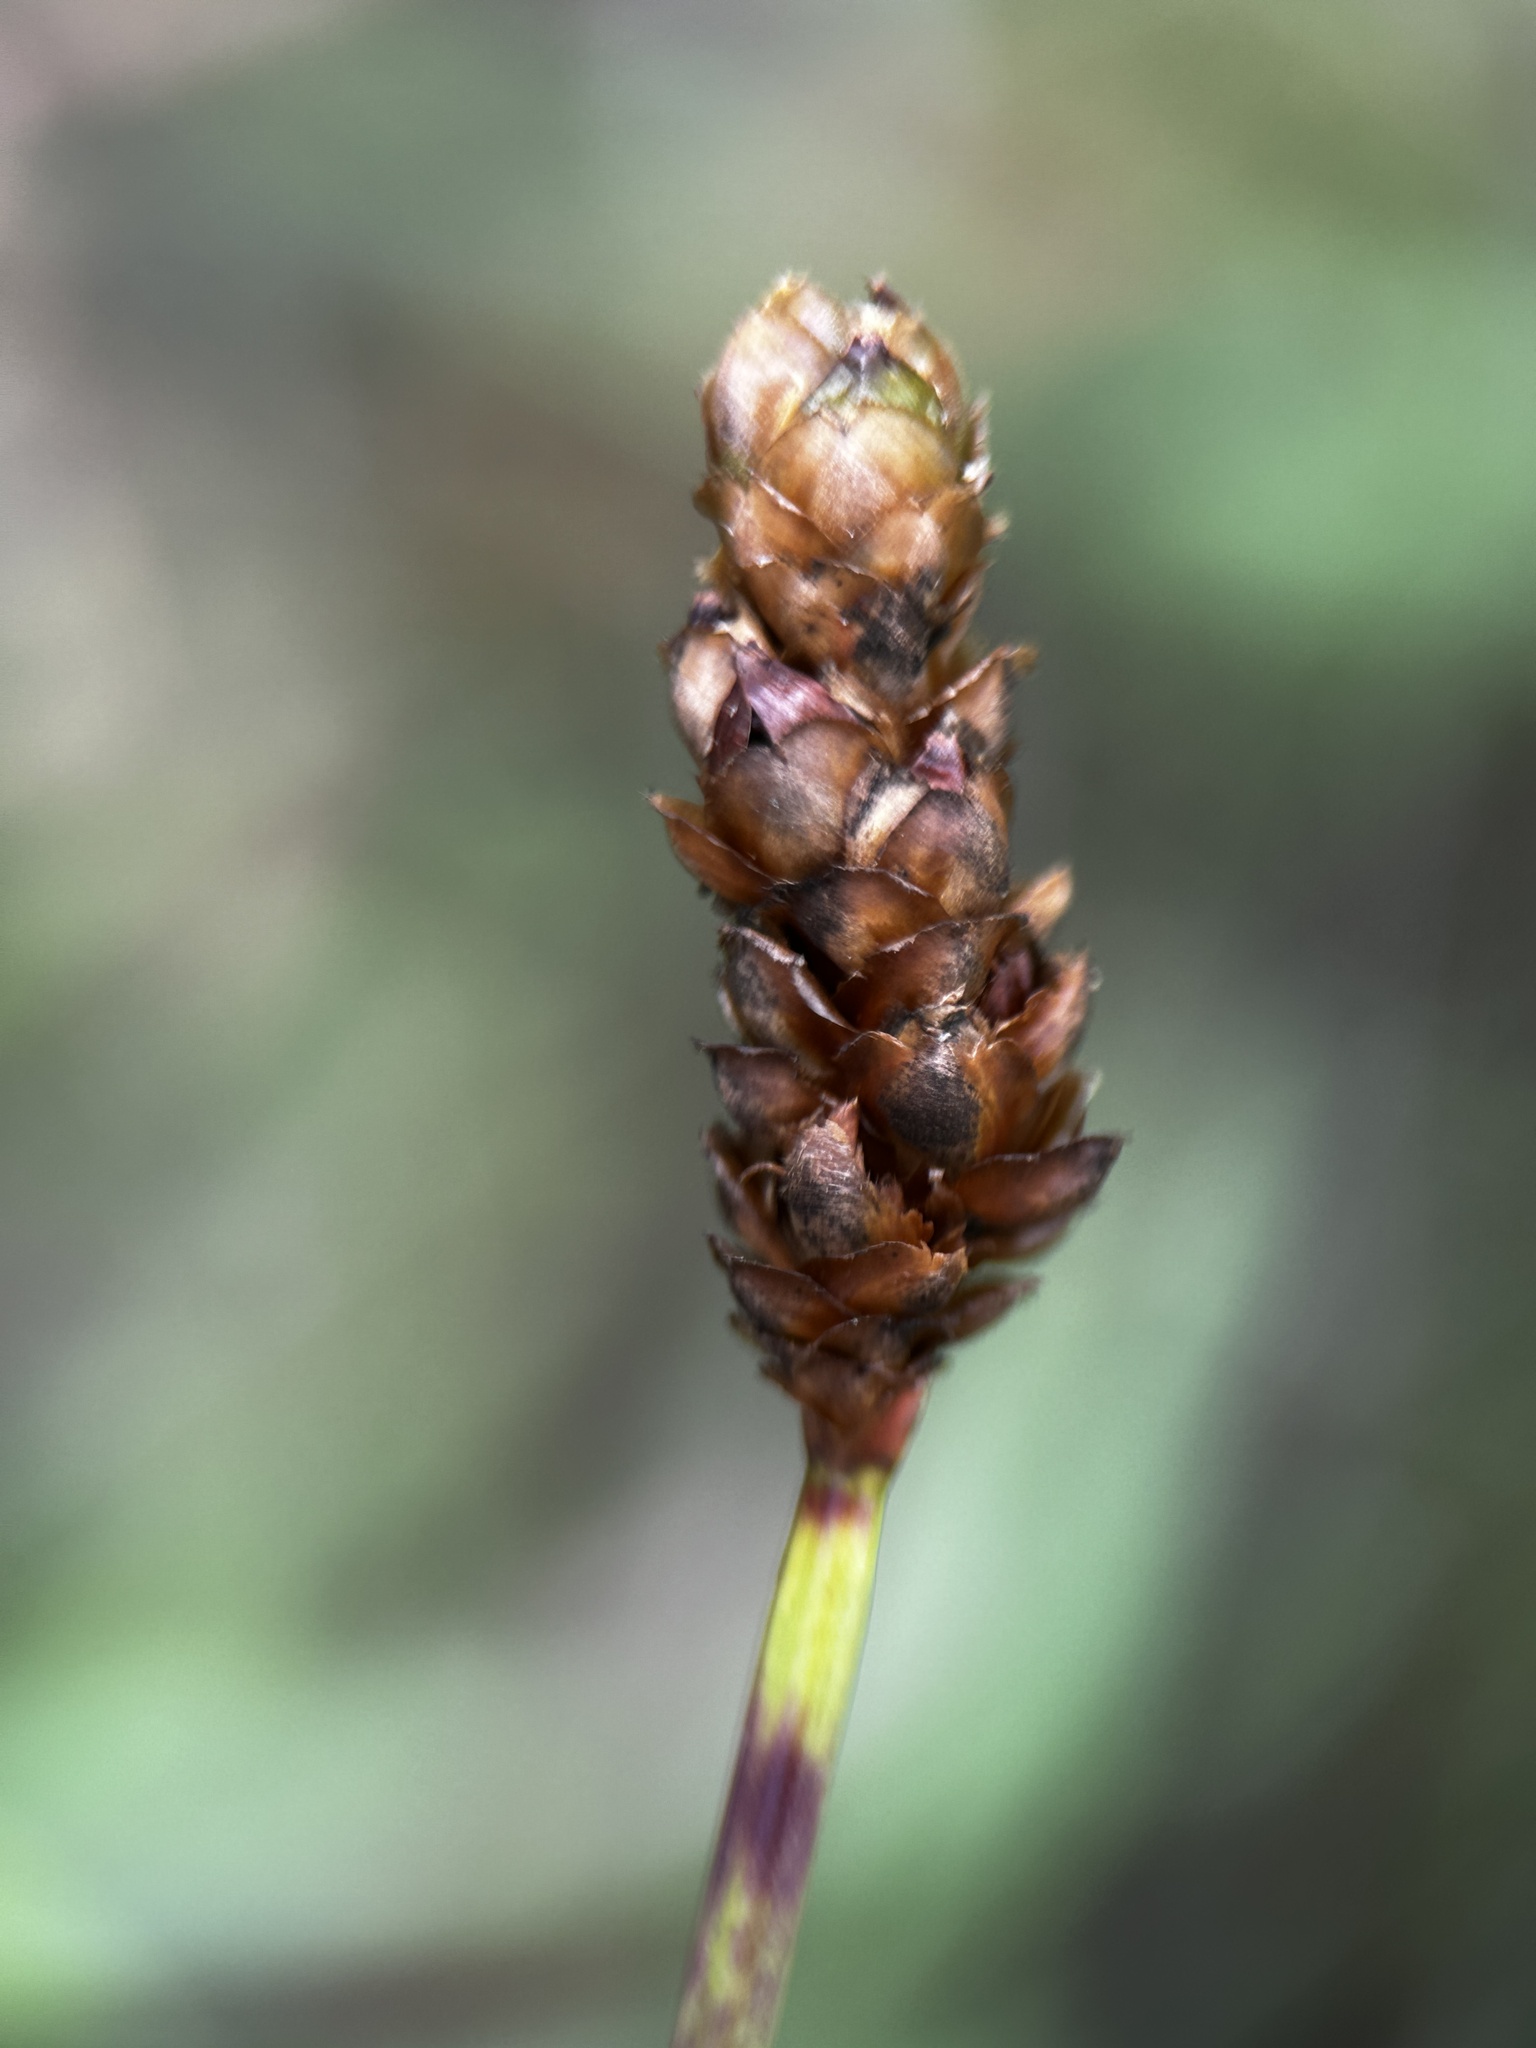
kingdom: Plantae
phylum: Tracheophyta
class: Liliopsida
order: Poales
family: Xyridaceae
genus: Xyris
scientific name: Xyris complanata
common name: Hawai'i yelloweyed grass
